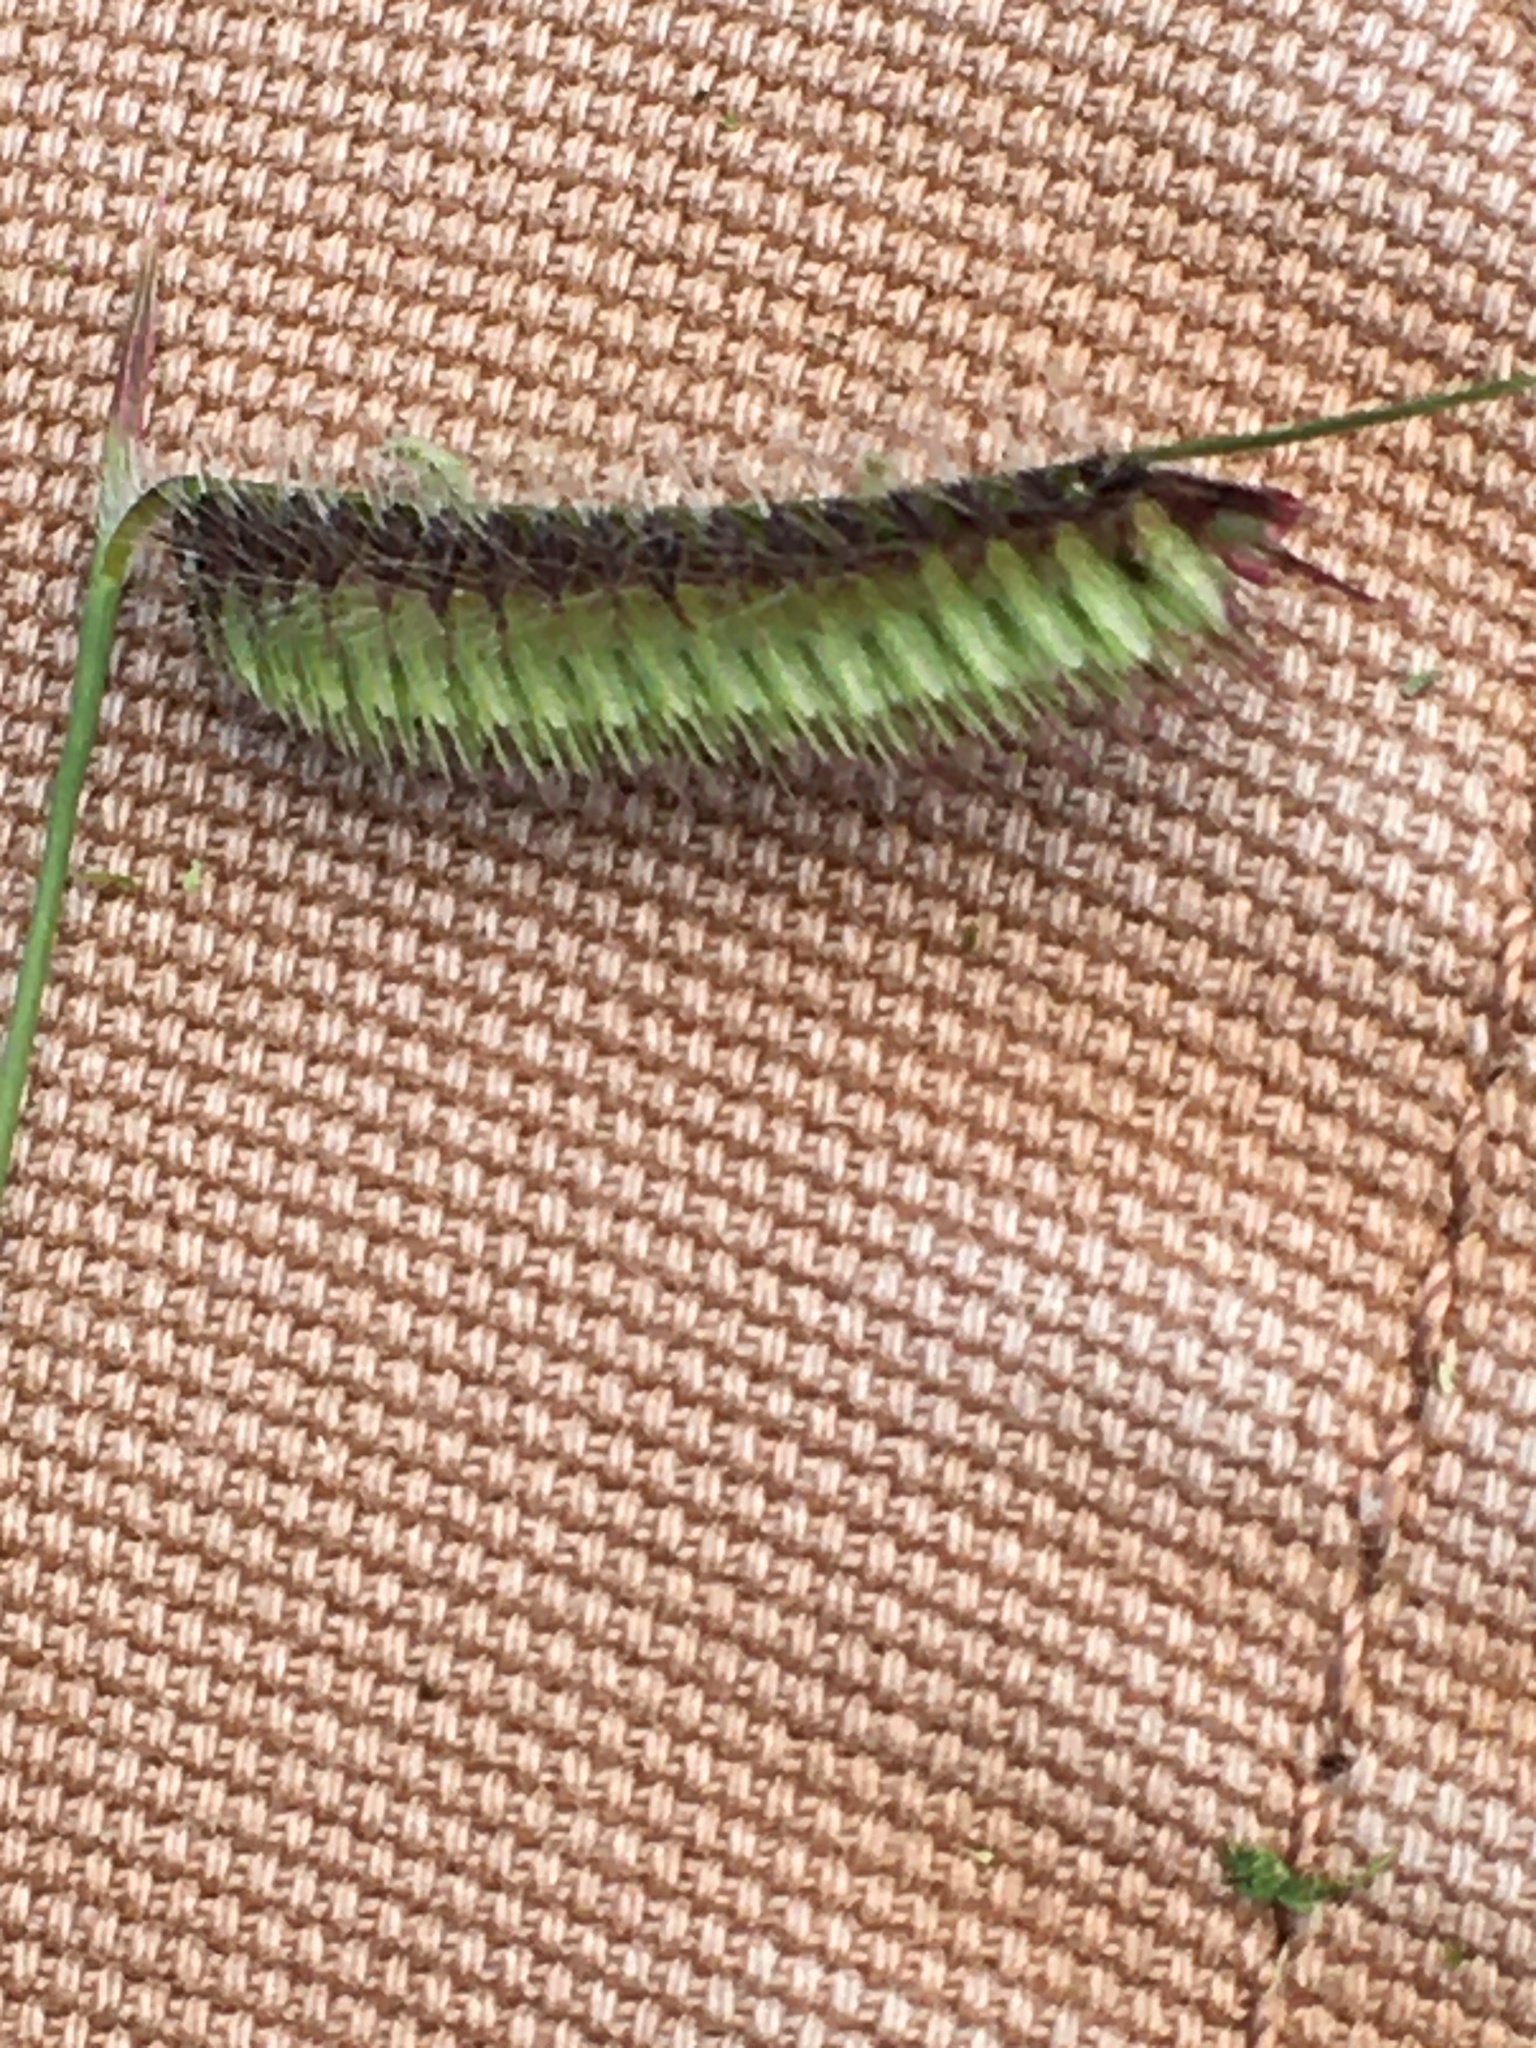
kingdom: Plantae
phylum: Tracheophyta
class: Liliopsida
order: Poales
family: Poaceae
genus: Bouteloua
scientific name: Bouteloua hirsuta
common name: Hairy grama
